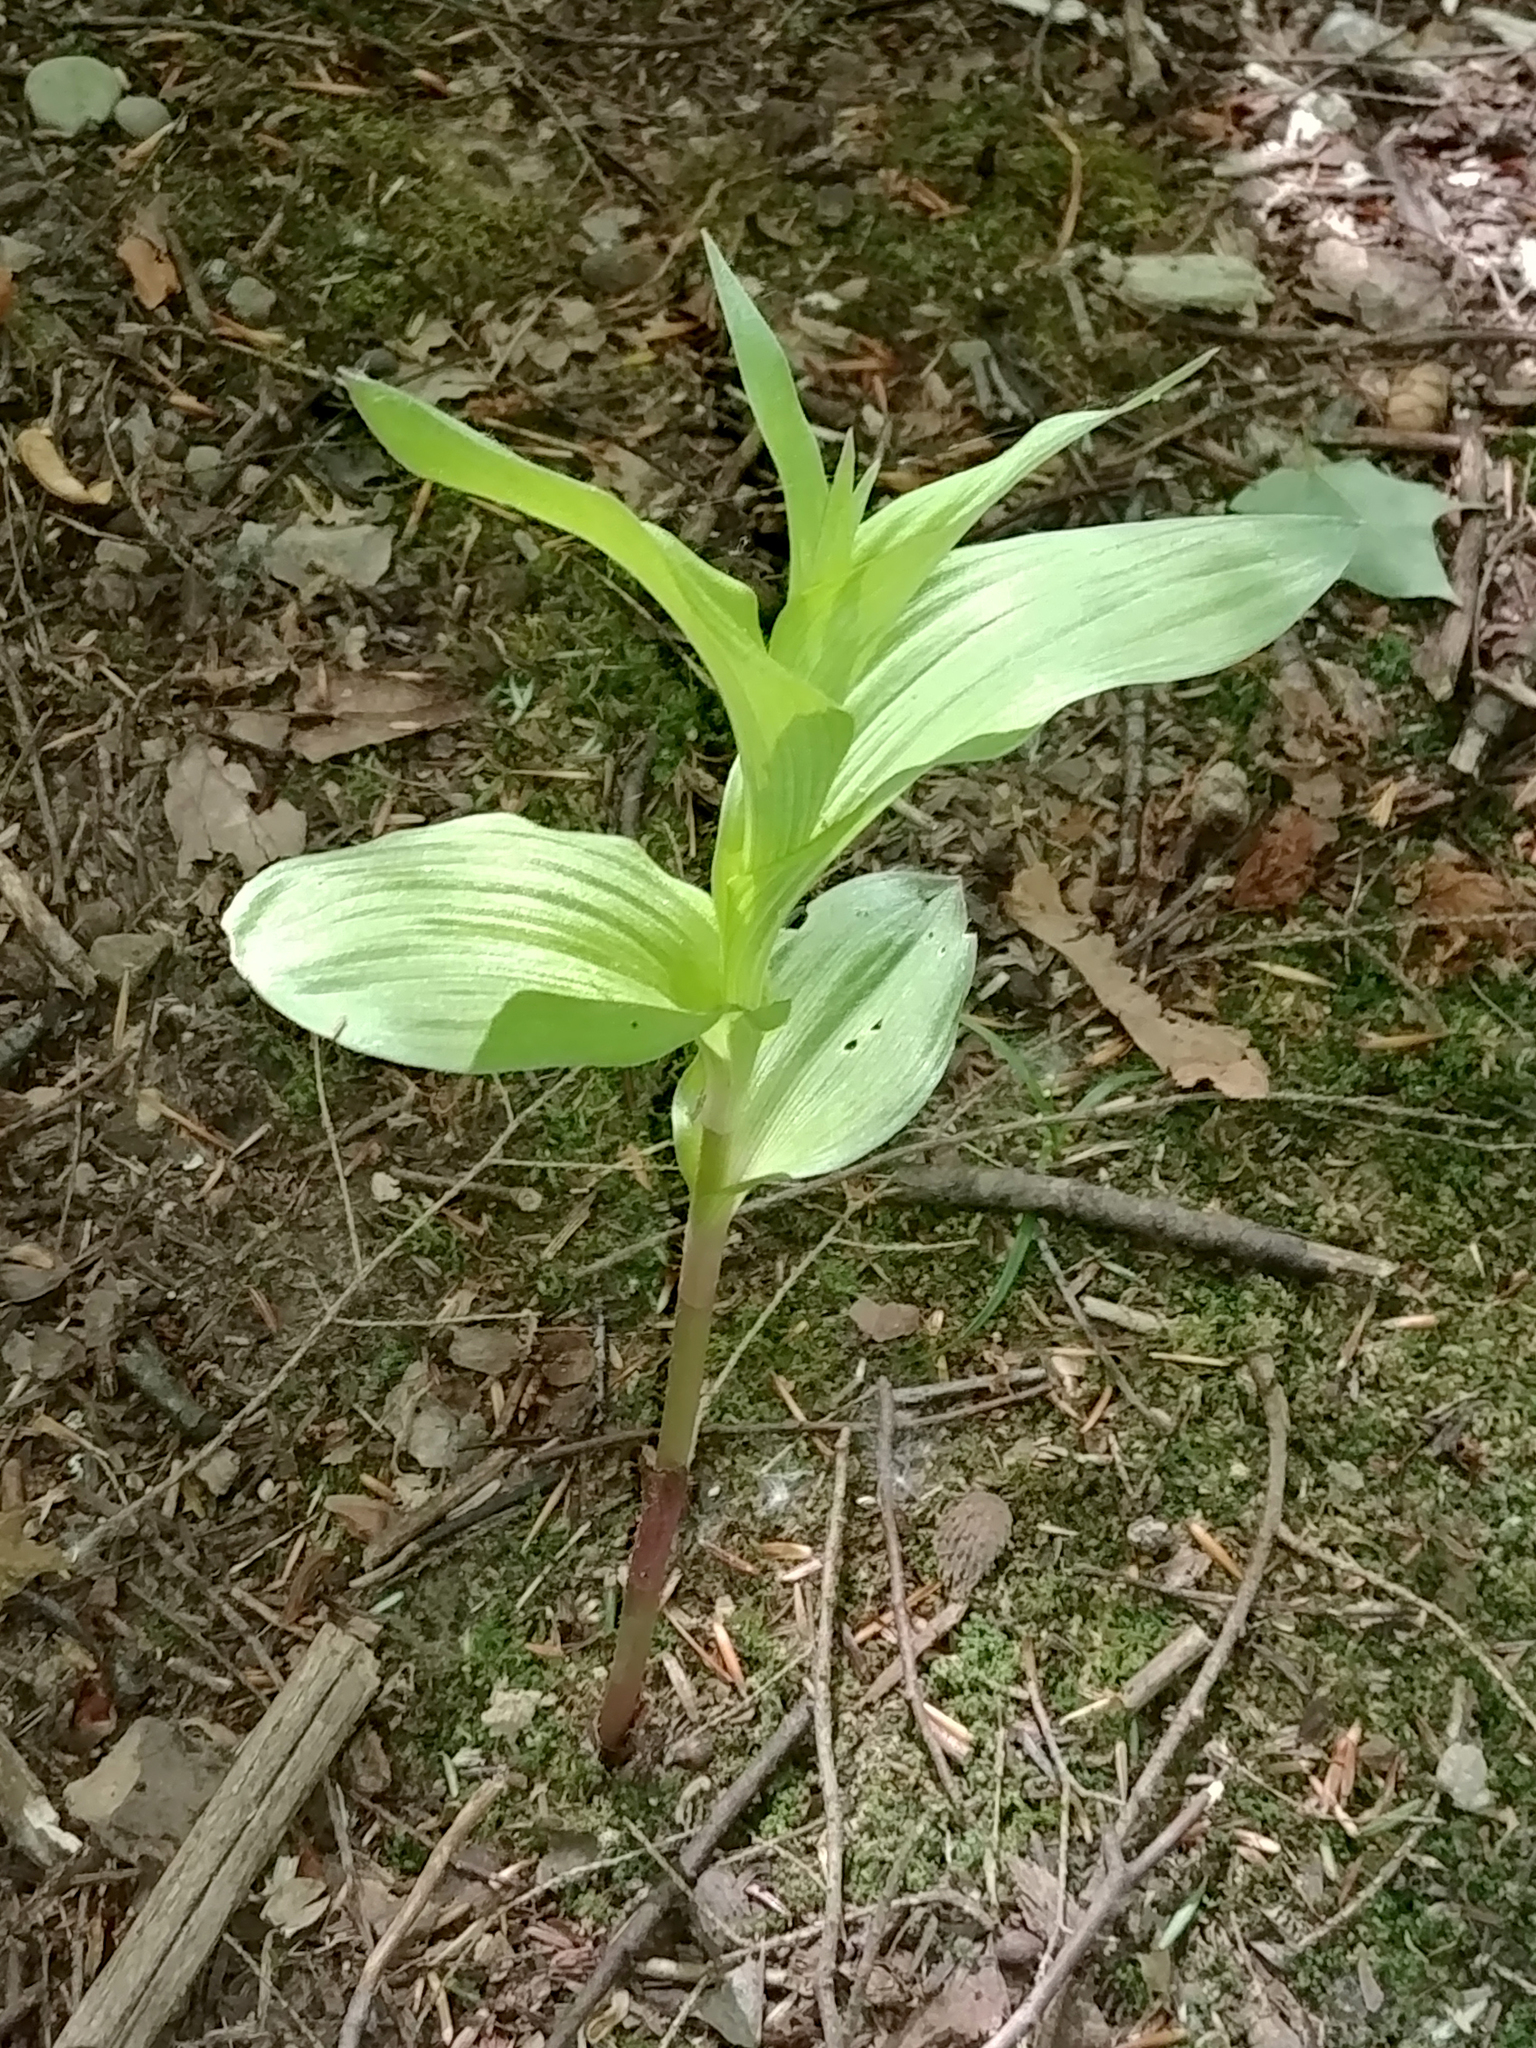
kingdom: Plantae
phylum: Tracheophyta
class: Liliopsida
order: Asparagales
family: Orchidaceae
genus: Epipactis
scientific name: Epipactis helleborine
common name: Broad-leaved helleborine
